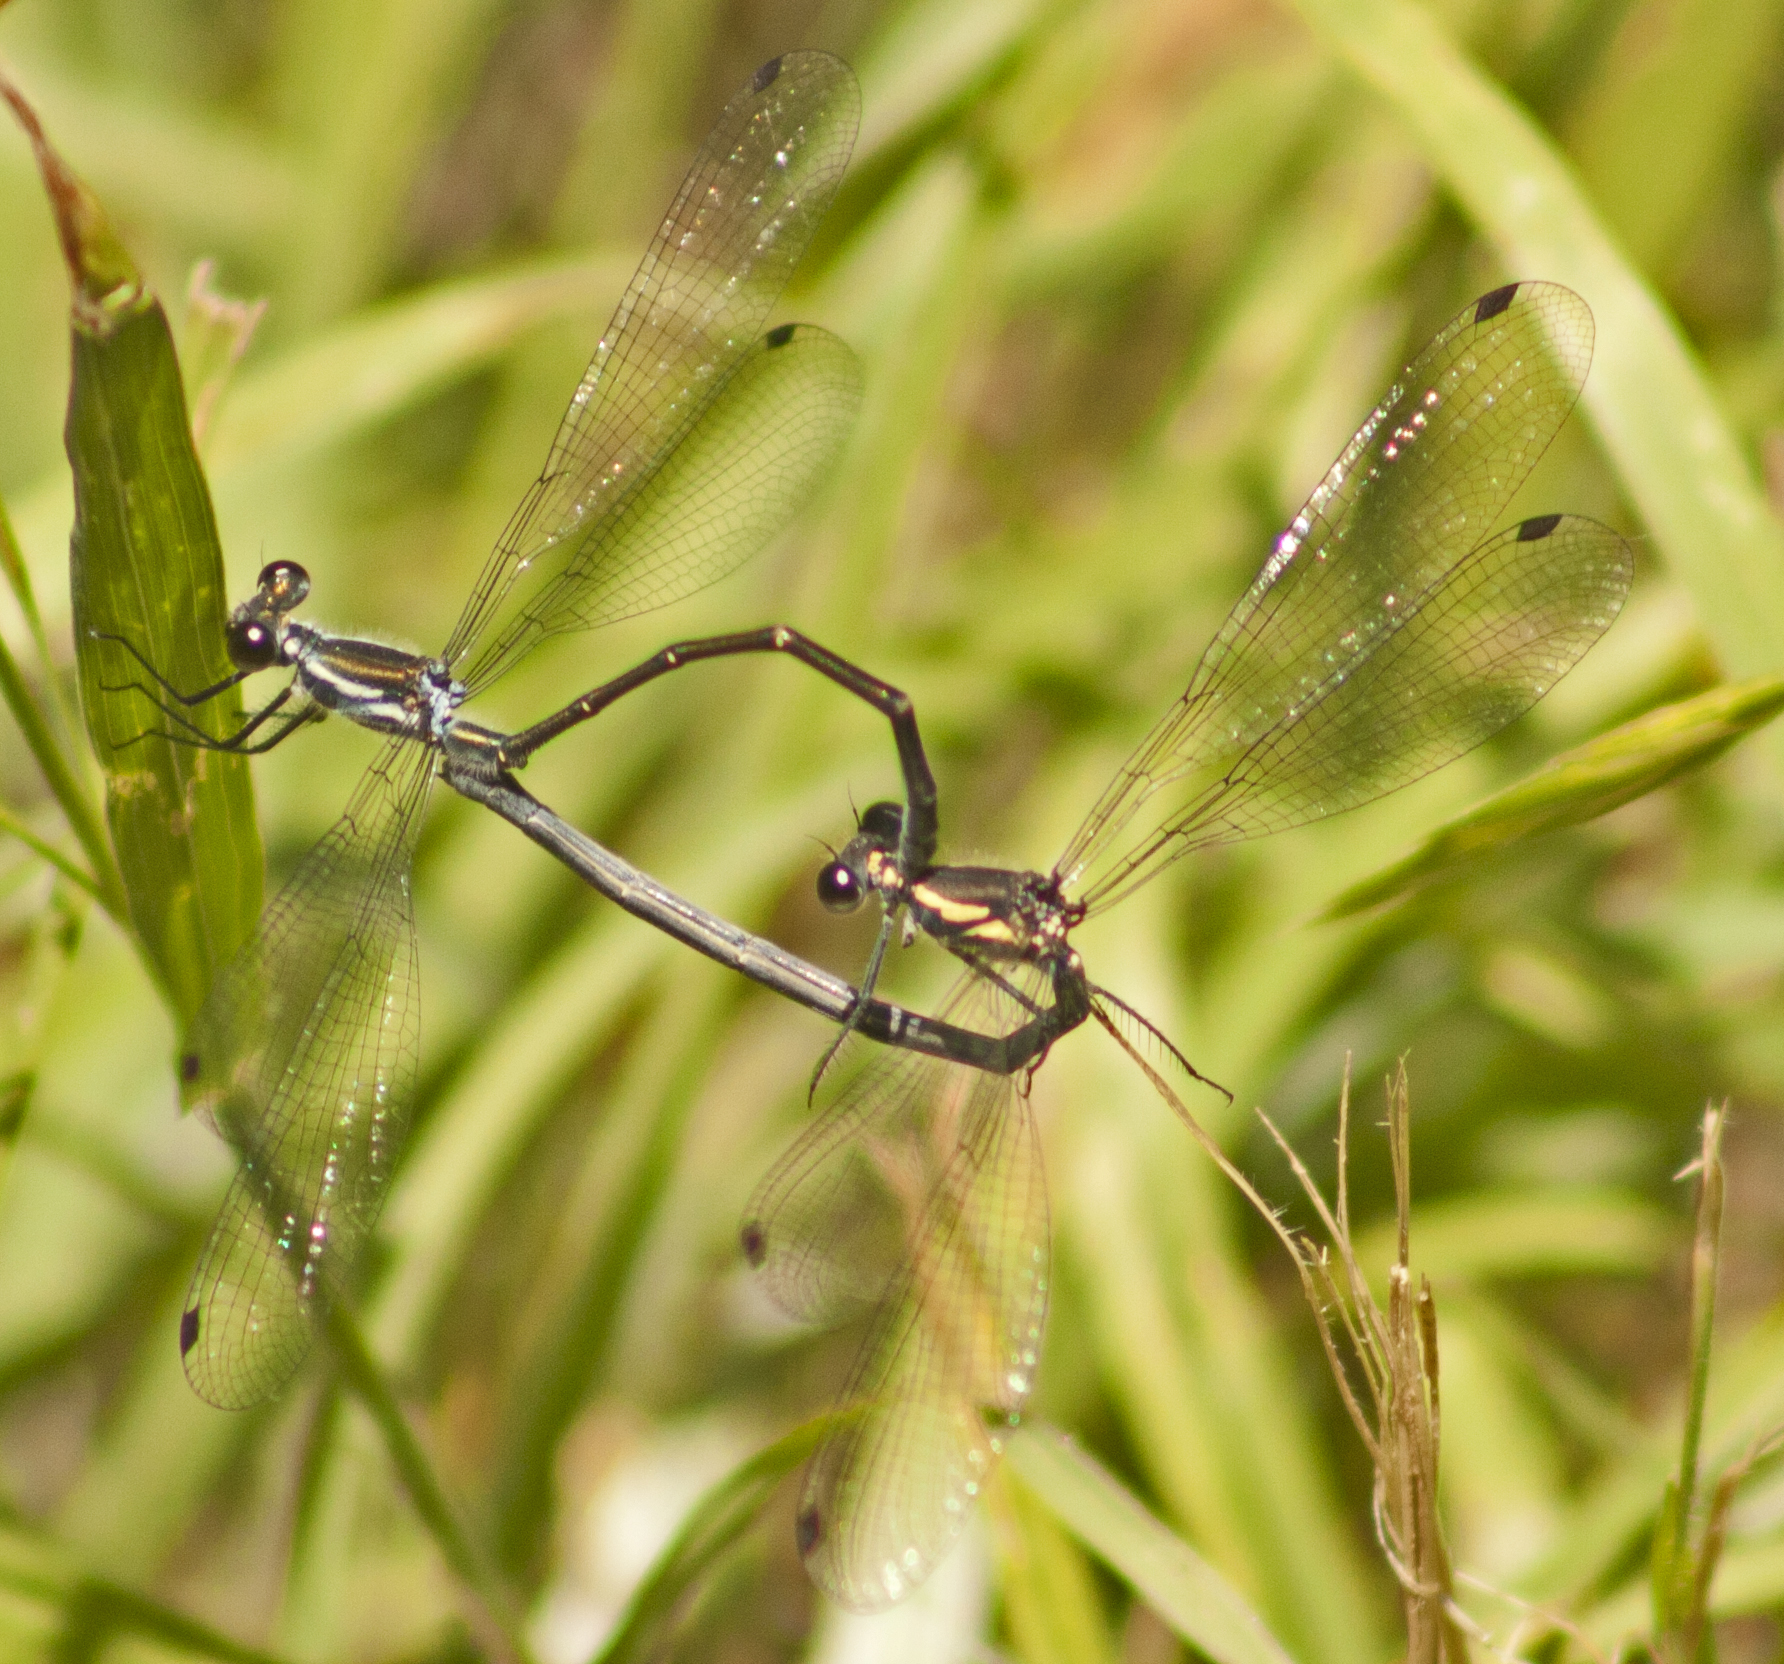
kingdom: Animalia
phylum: Arthropoda
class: Insecta
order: Odonata
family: Argiolestidae
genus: Austroargiolestes
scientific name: Austroargiolestes icteromelas
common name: Common flatwing
